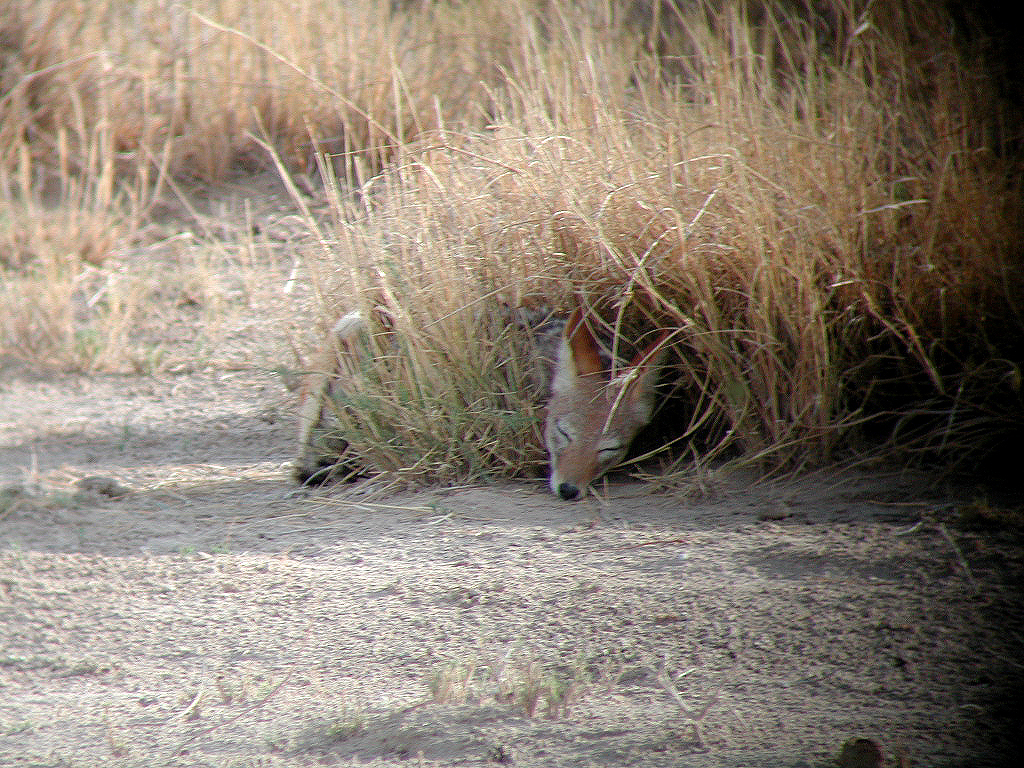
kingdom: Animalia
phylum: Chordata
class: Mammalia
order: Carnivora
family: Canidae
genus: Lupulella
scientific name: Lupulella
